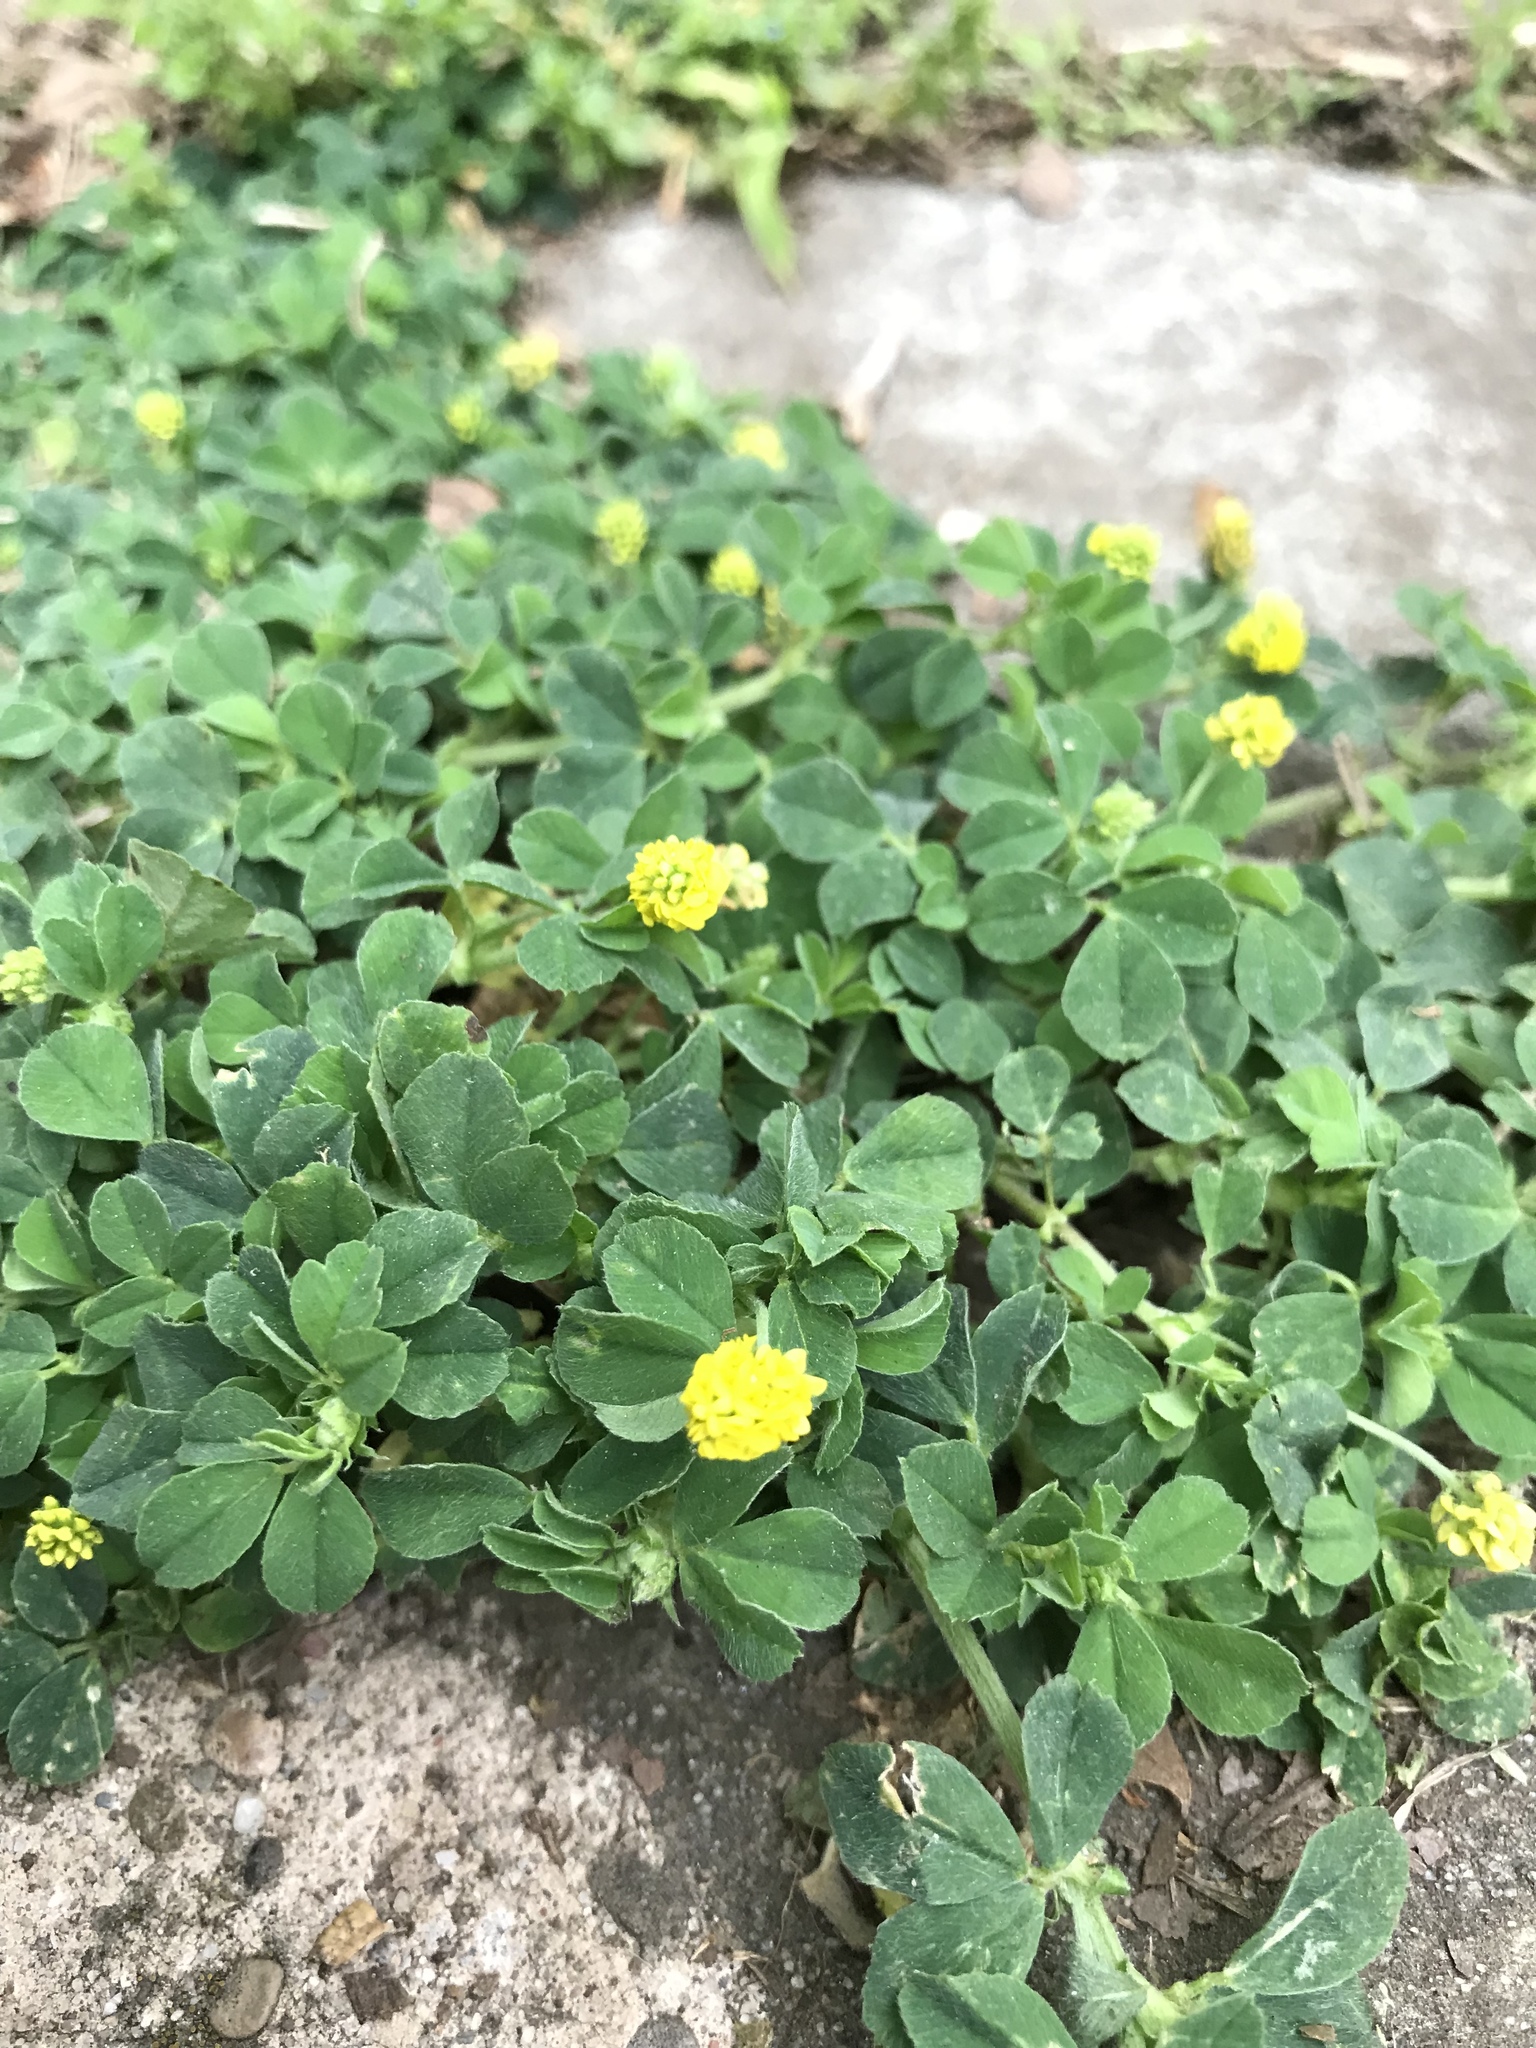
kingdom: Plantae
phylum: Tracheophyta
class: Magnoliopsida
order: Fabales
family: Fabaceae
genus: Medicago
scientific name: Medicago lupulina
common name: Black medick
